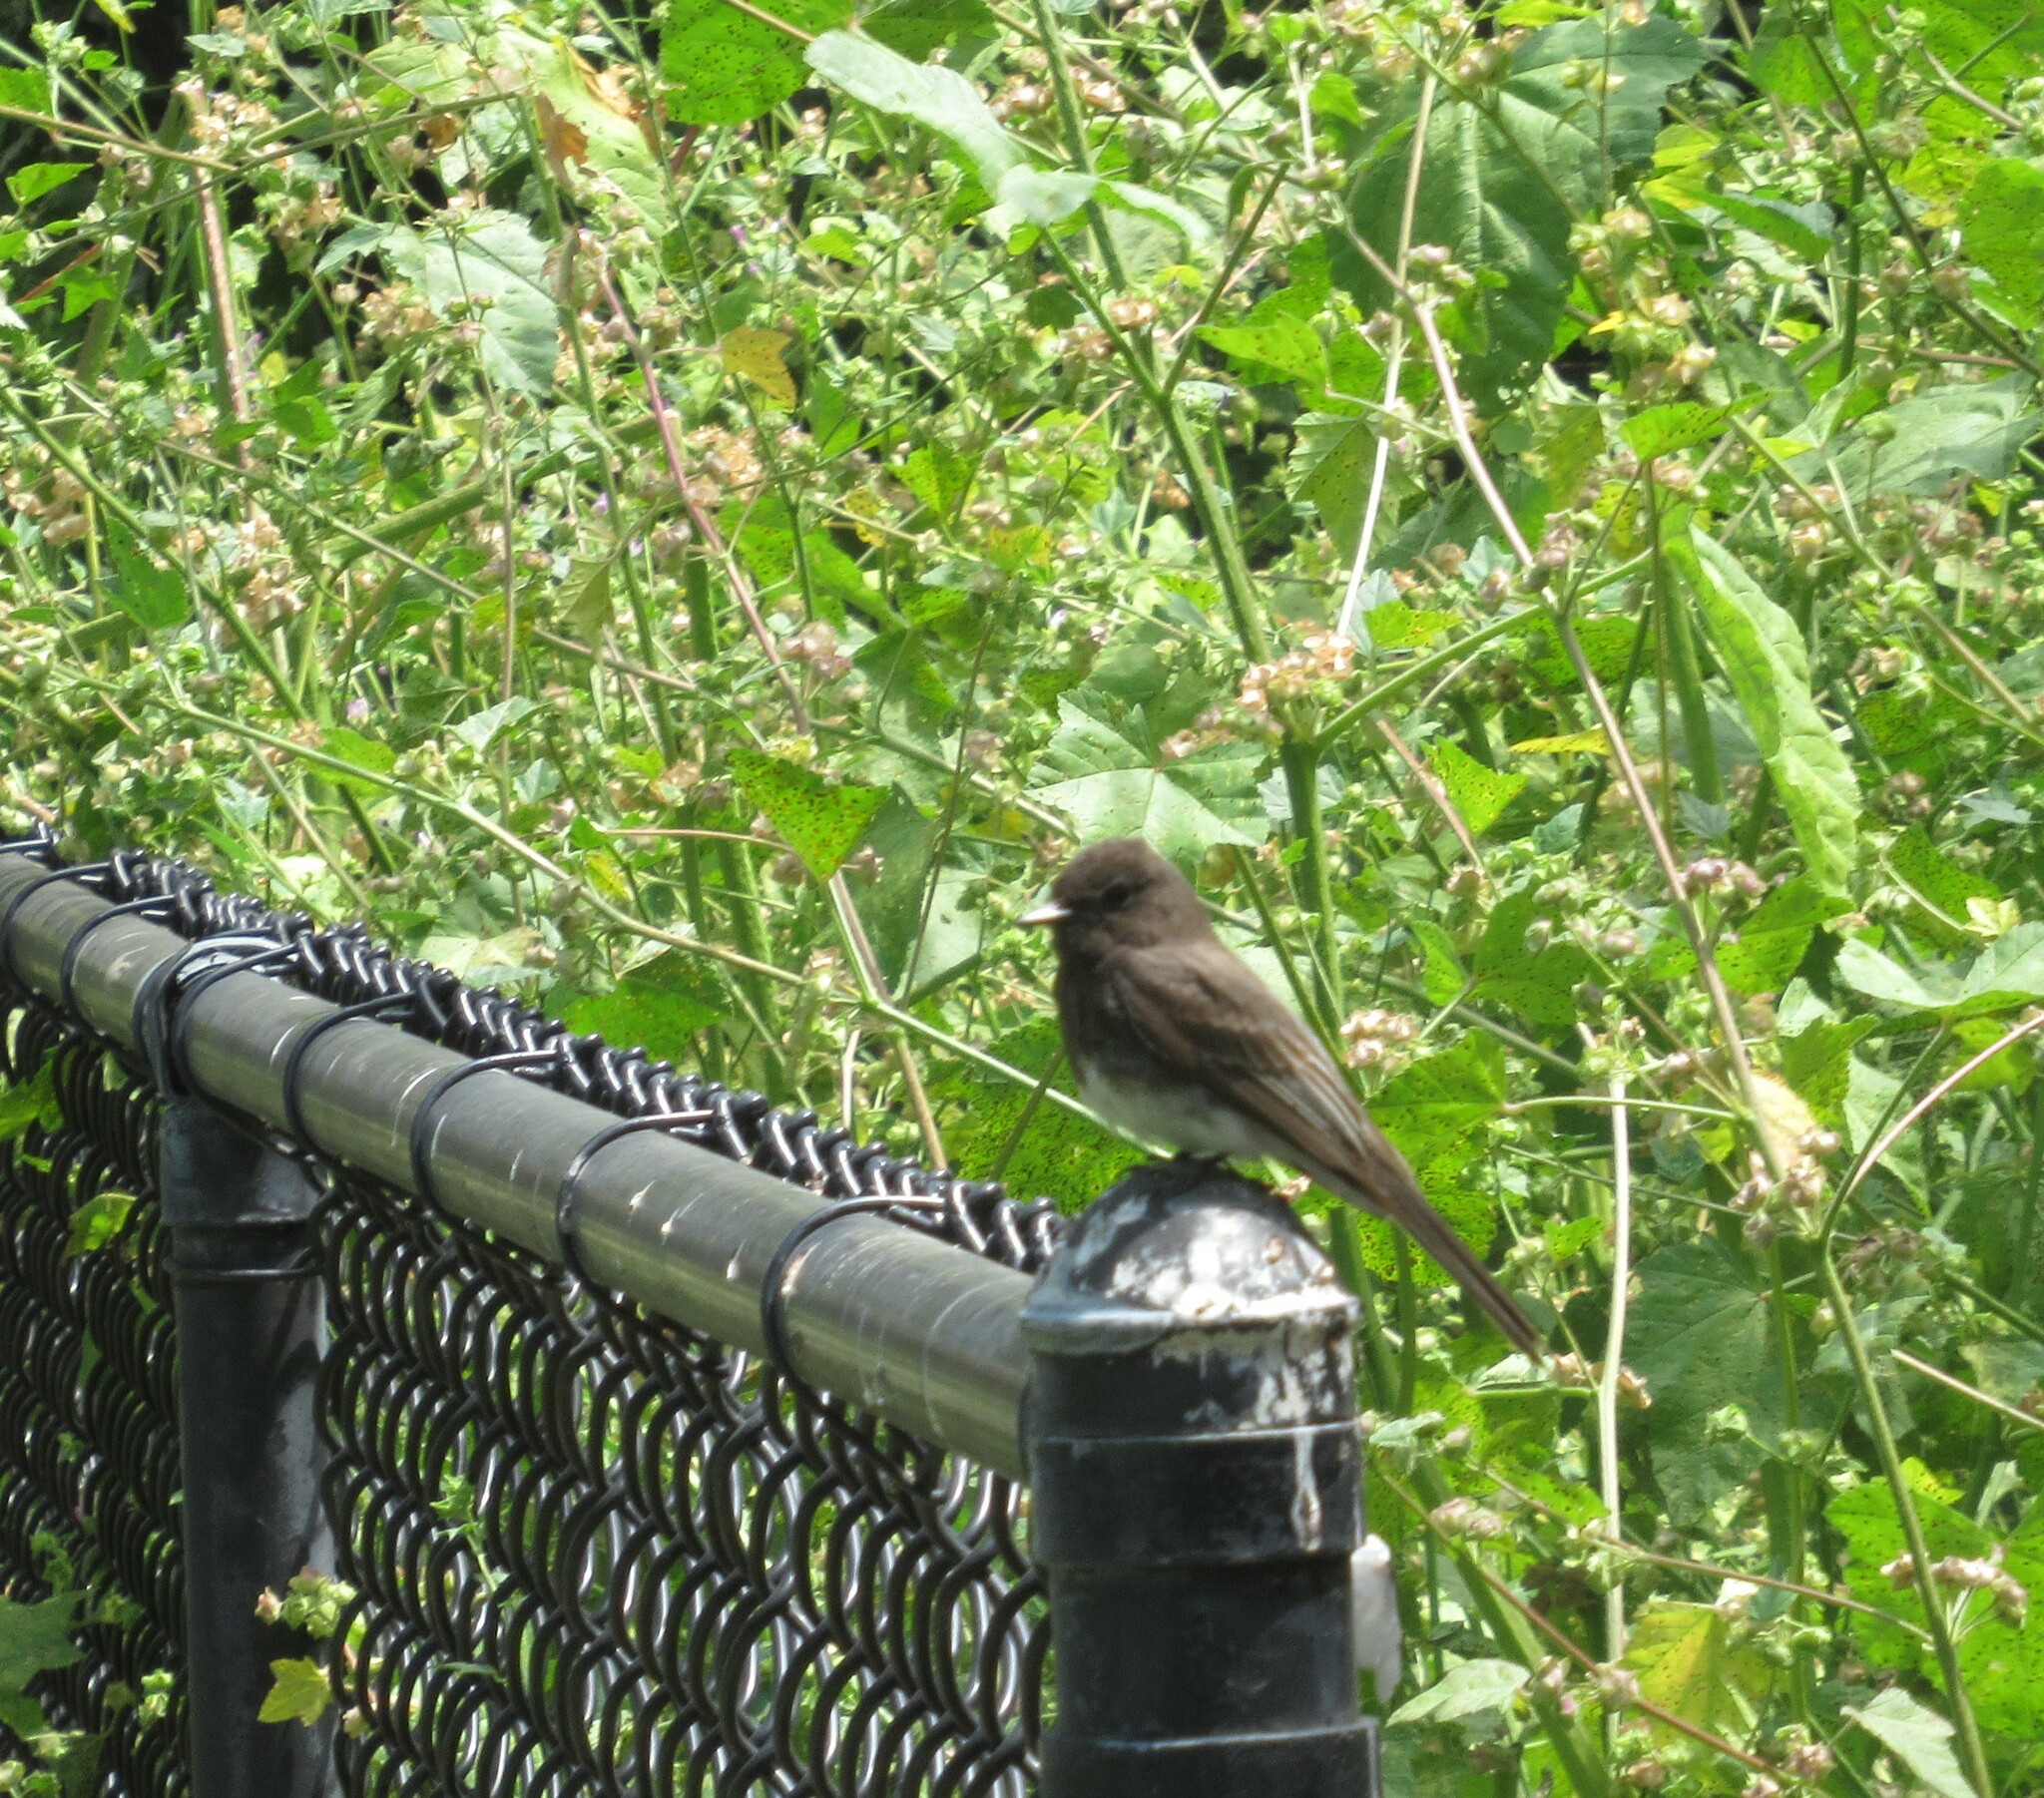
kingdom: Animalia
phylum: Chordata
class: Aves
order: Passeriformes
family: Tyrannidae
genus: Sayornis
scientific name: Sayornis nigricans
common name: Black phoebe
